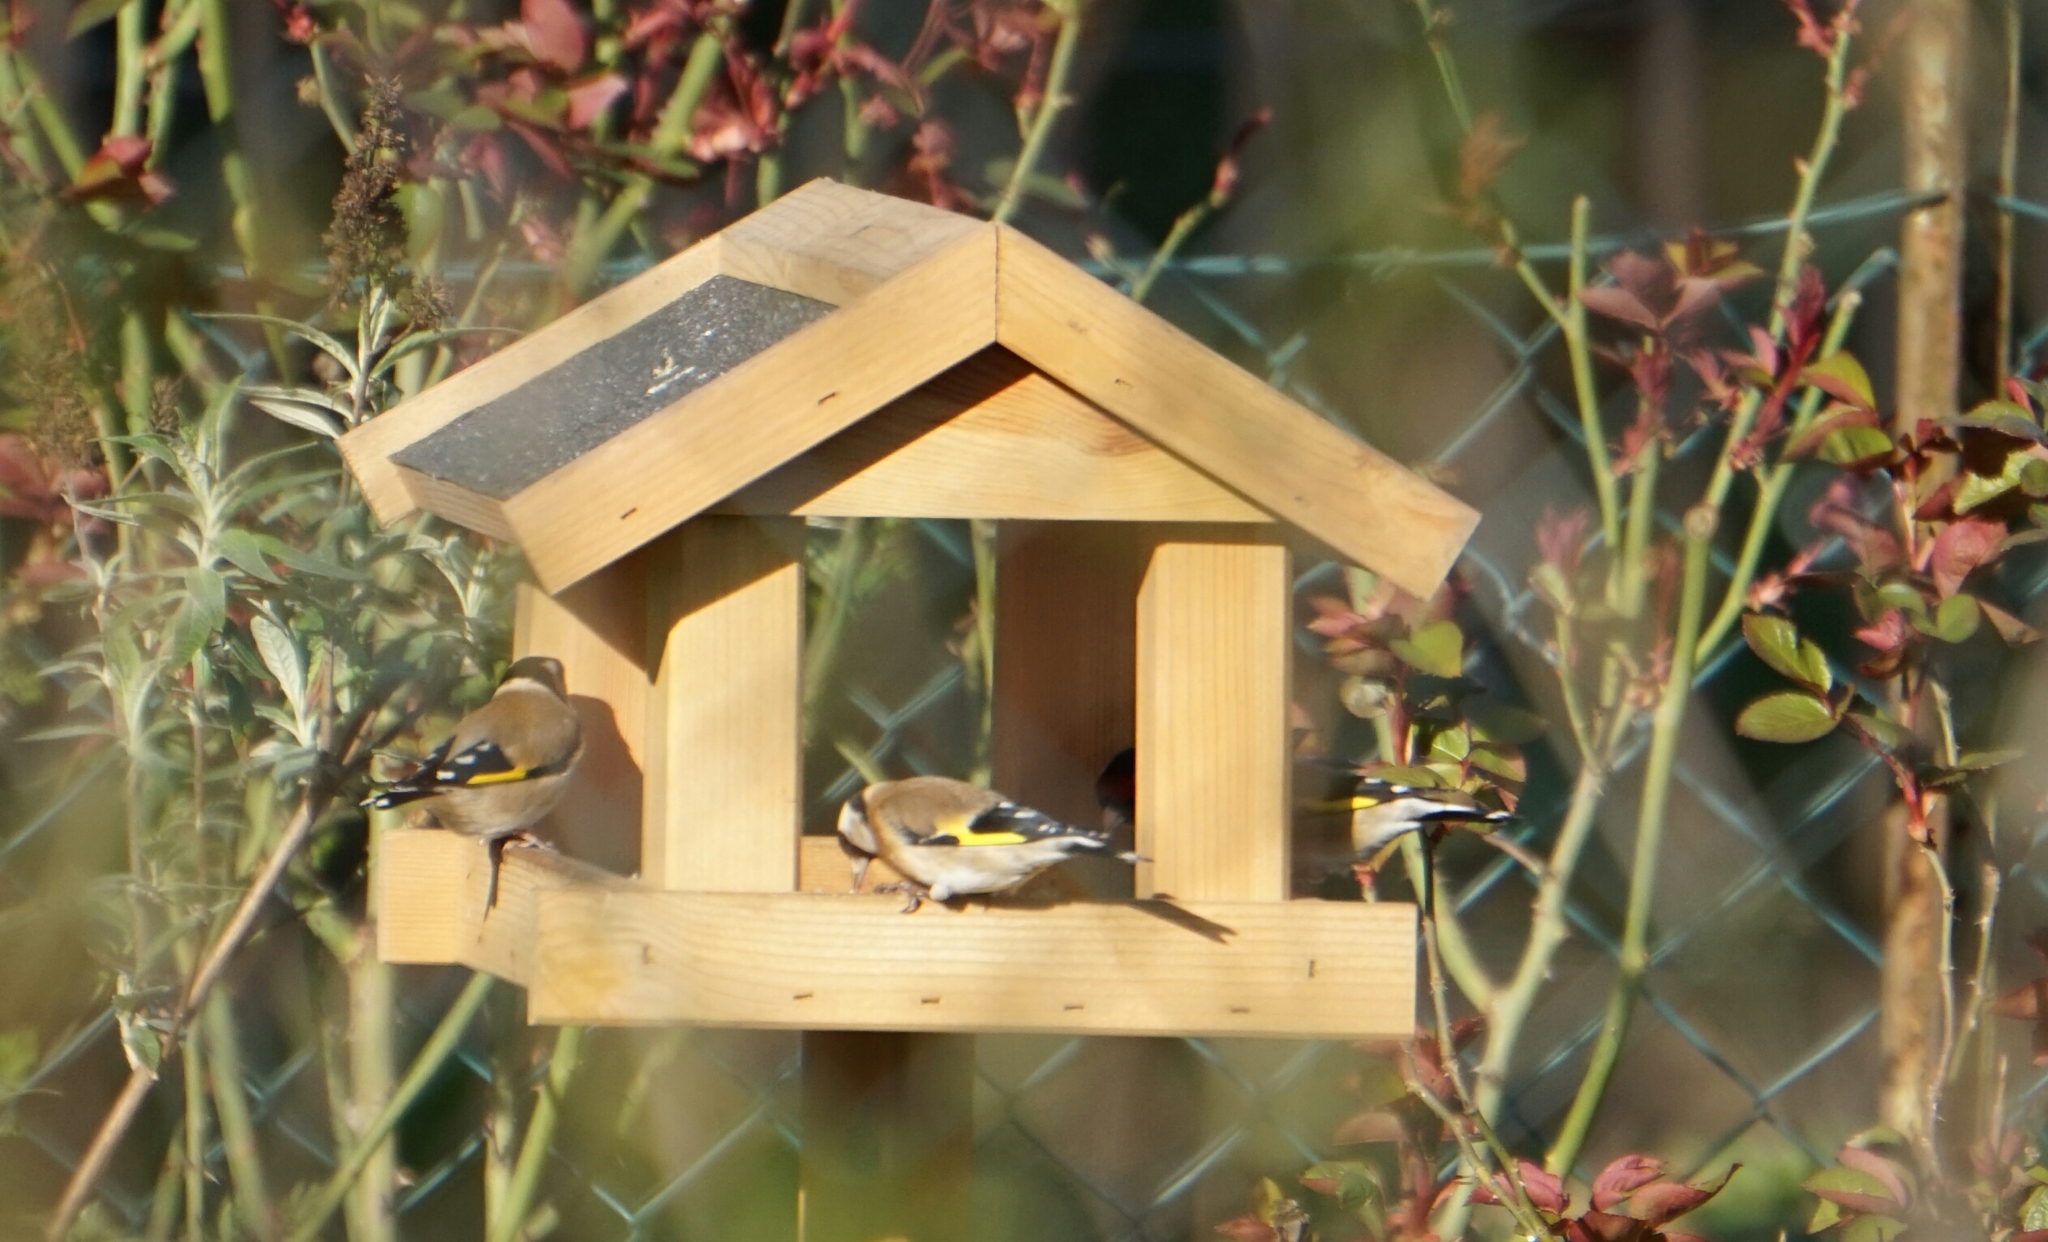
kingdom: Animalia
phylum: Chordata
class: Aves
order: Passeriformes
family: Fringillidae
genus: Carduelis
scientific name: Carduelis carduelis
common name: European goldfinch
